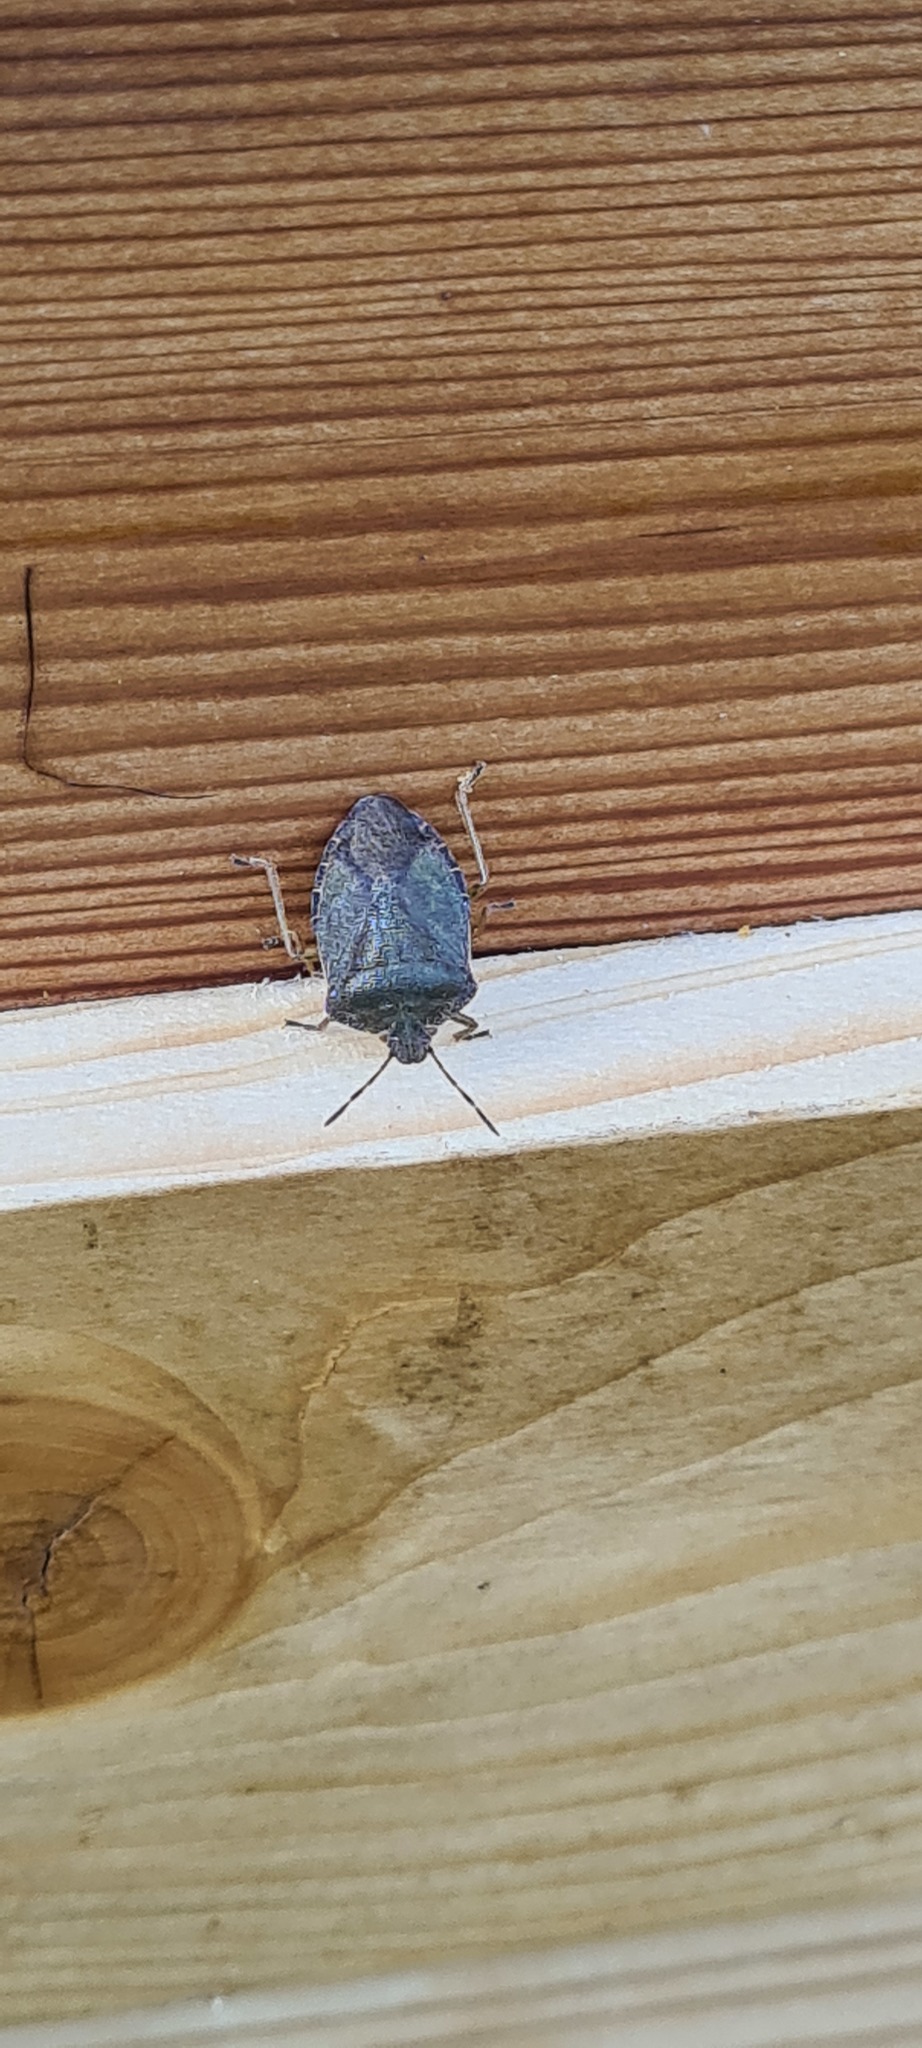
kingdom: Animalia
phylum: Arthropoda
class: Insecta
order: Hemiptera
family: Pentatomidae
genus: Palomena
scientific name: Palomena prasina
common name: Green shieldbug
